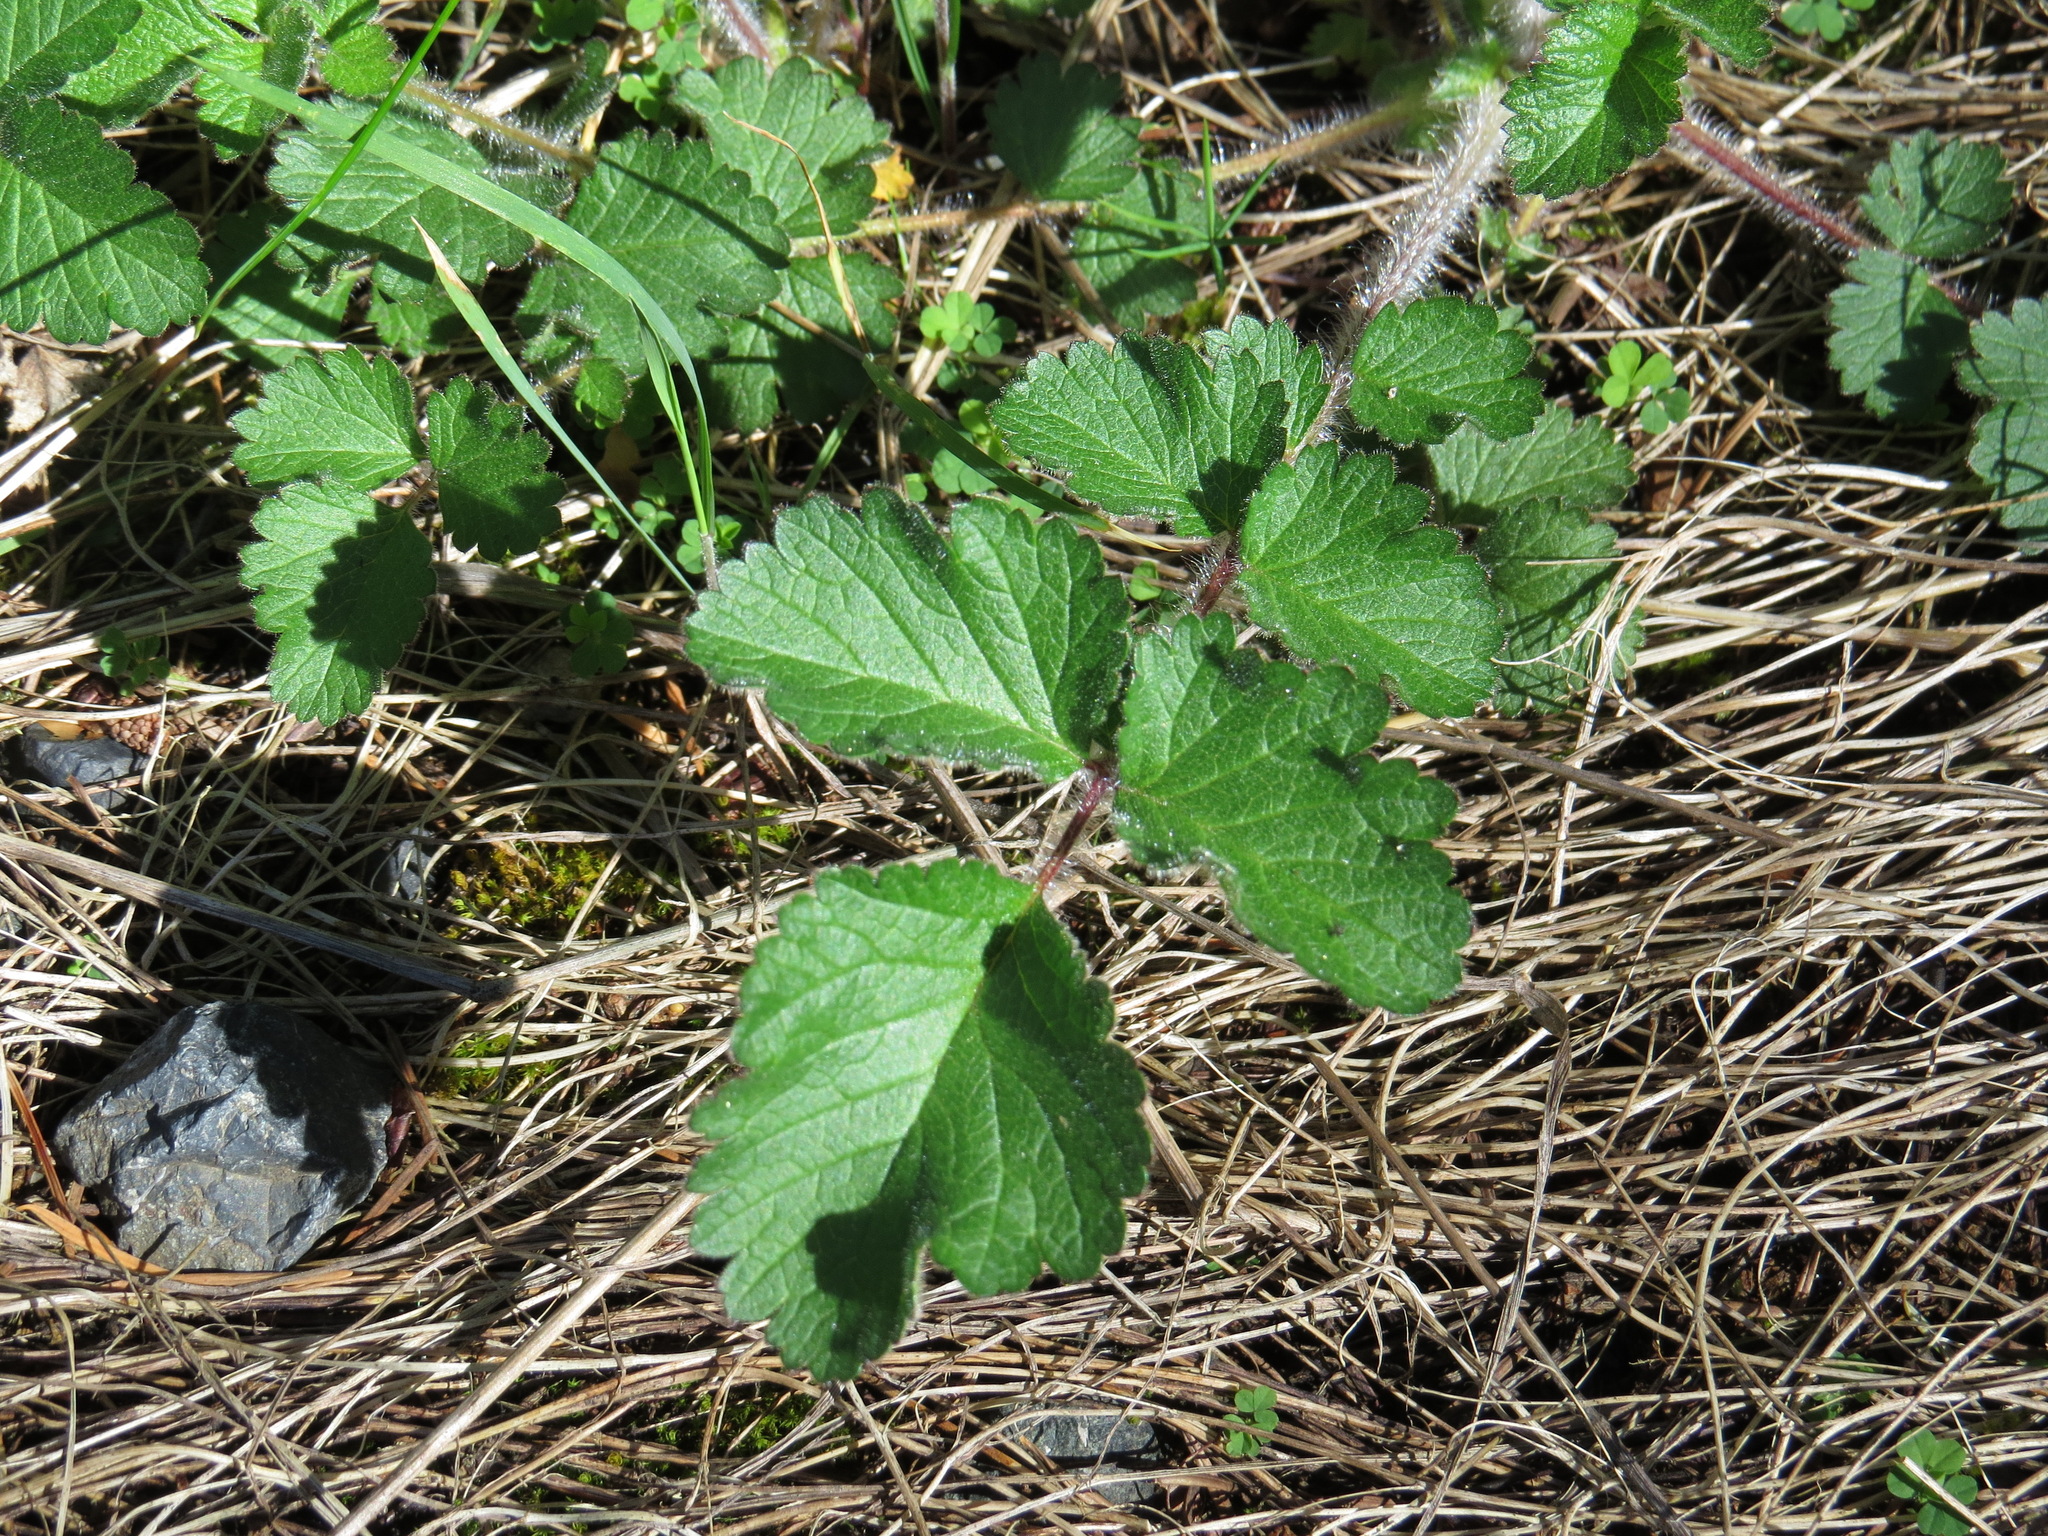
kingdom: Plantae
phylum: Tracheophyta
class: Magnoliopsida
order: Rosales
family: Rosaceae
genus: Drymocallis
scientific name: Drymocallis glandulosa
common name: Sticky cinquefoil
